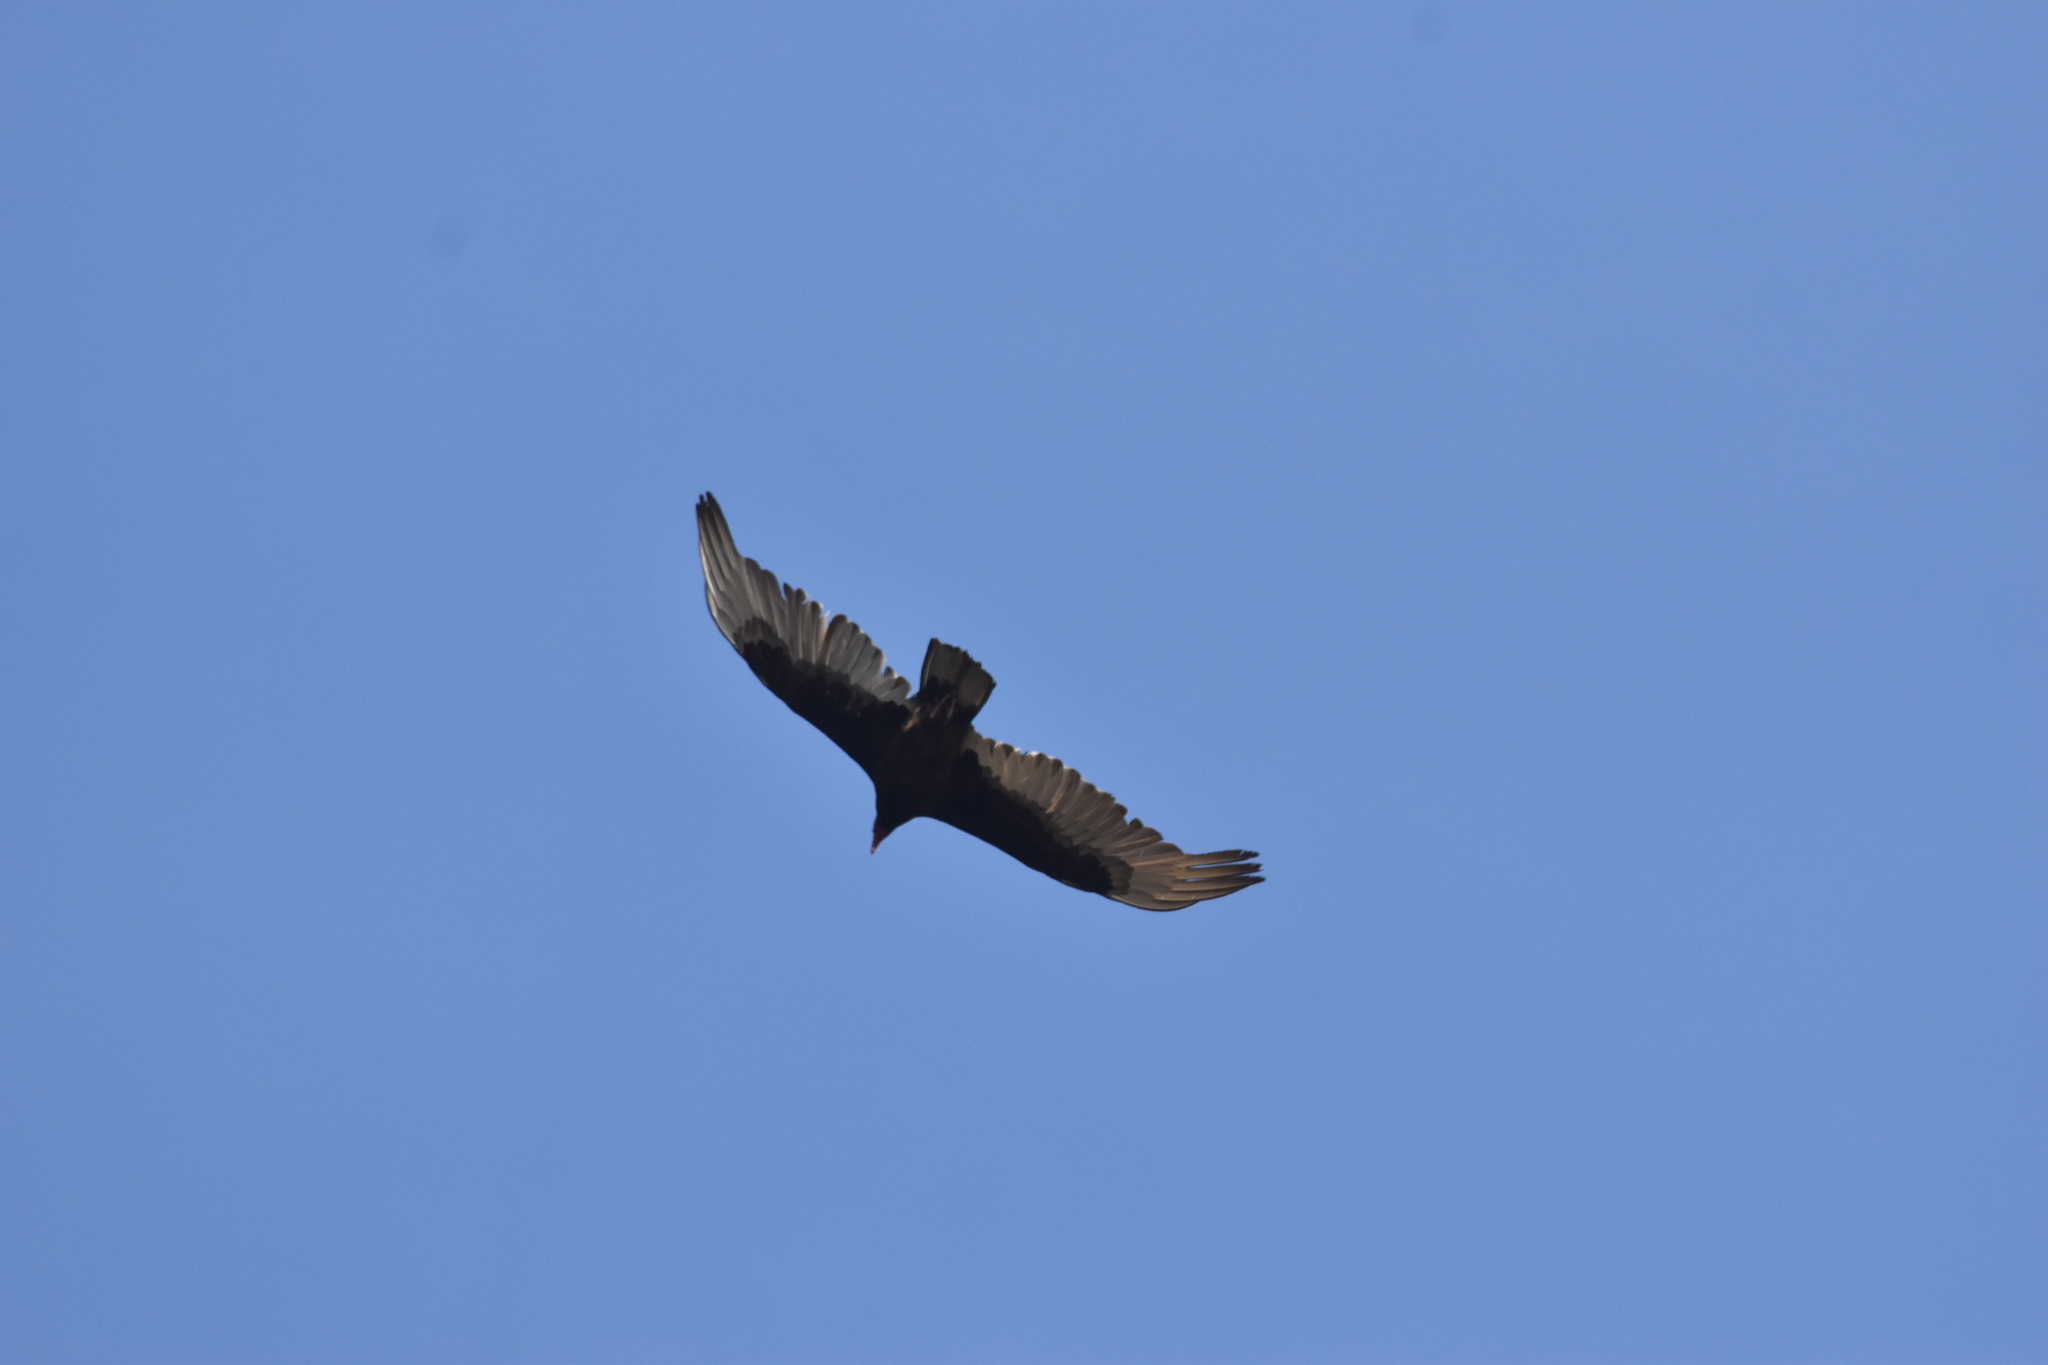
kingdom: Animalia
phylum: Chordata
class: Aves
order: Accipitriformes
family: Cathartidae
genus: Cathartes
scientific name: Cathartes aura
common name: Turkey vulture
